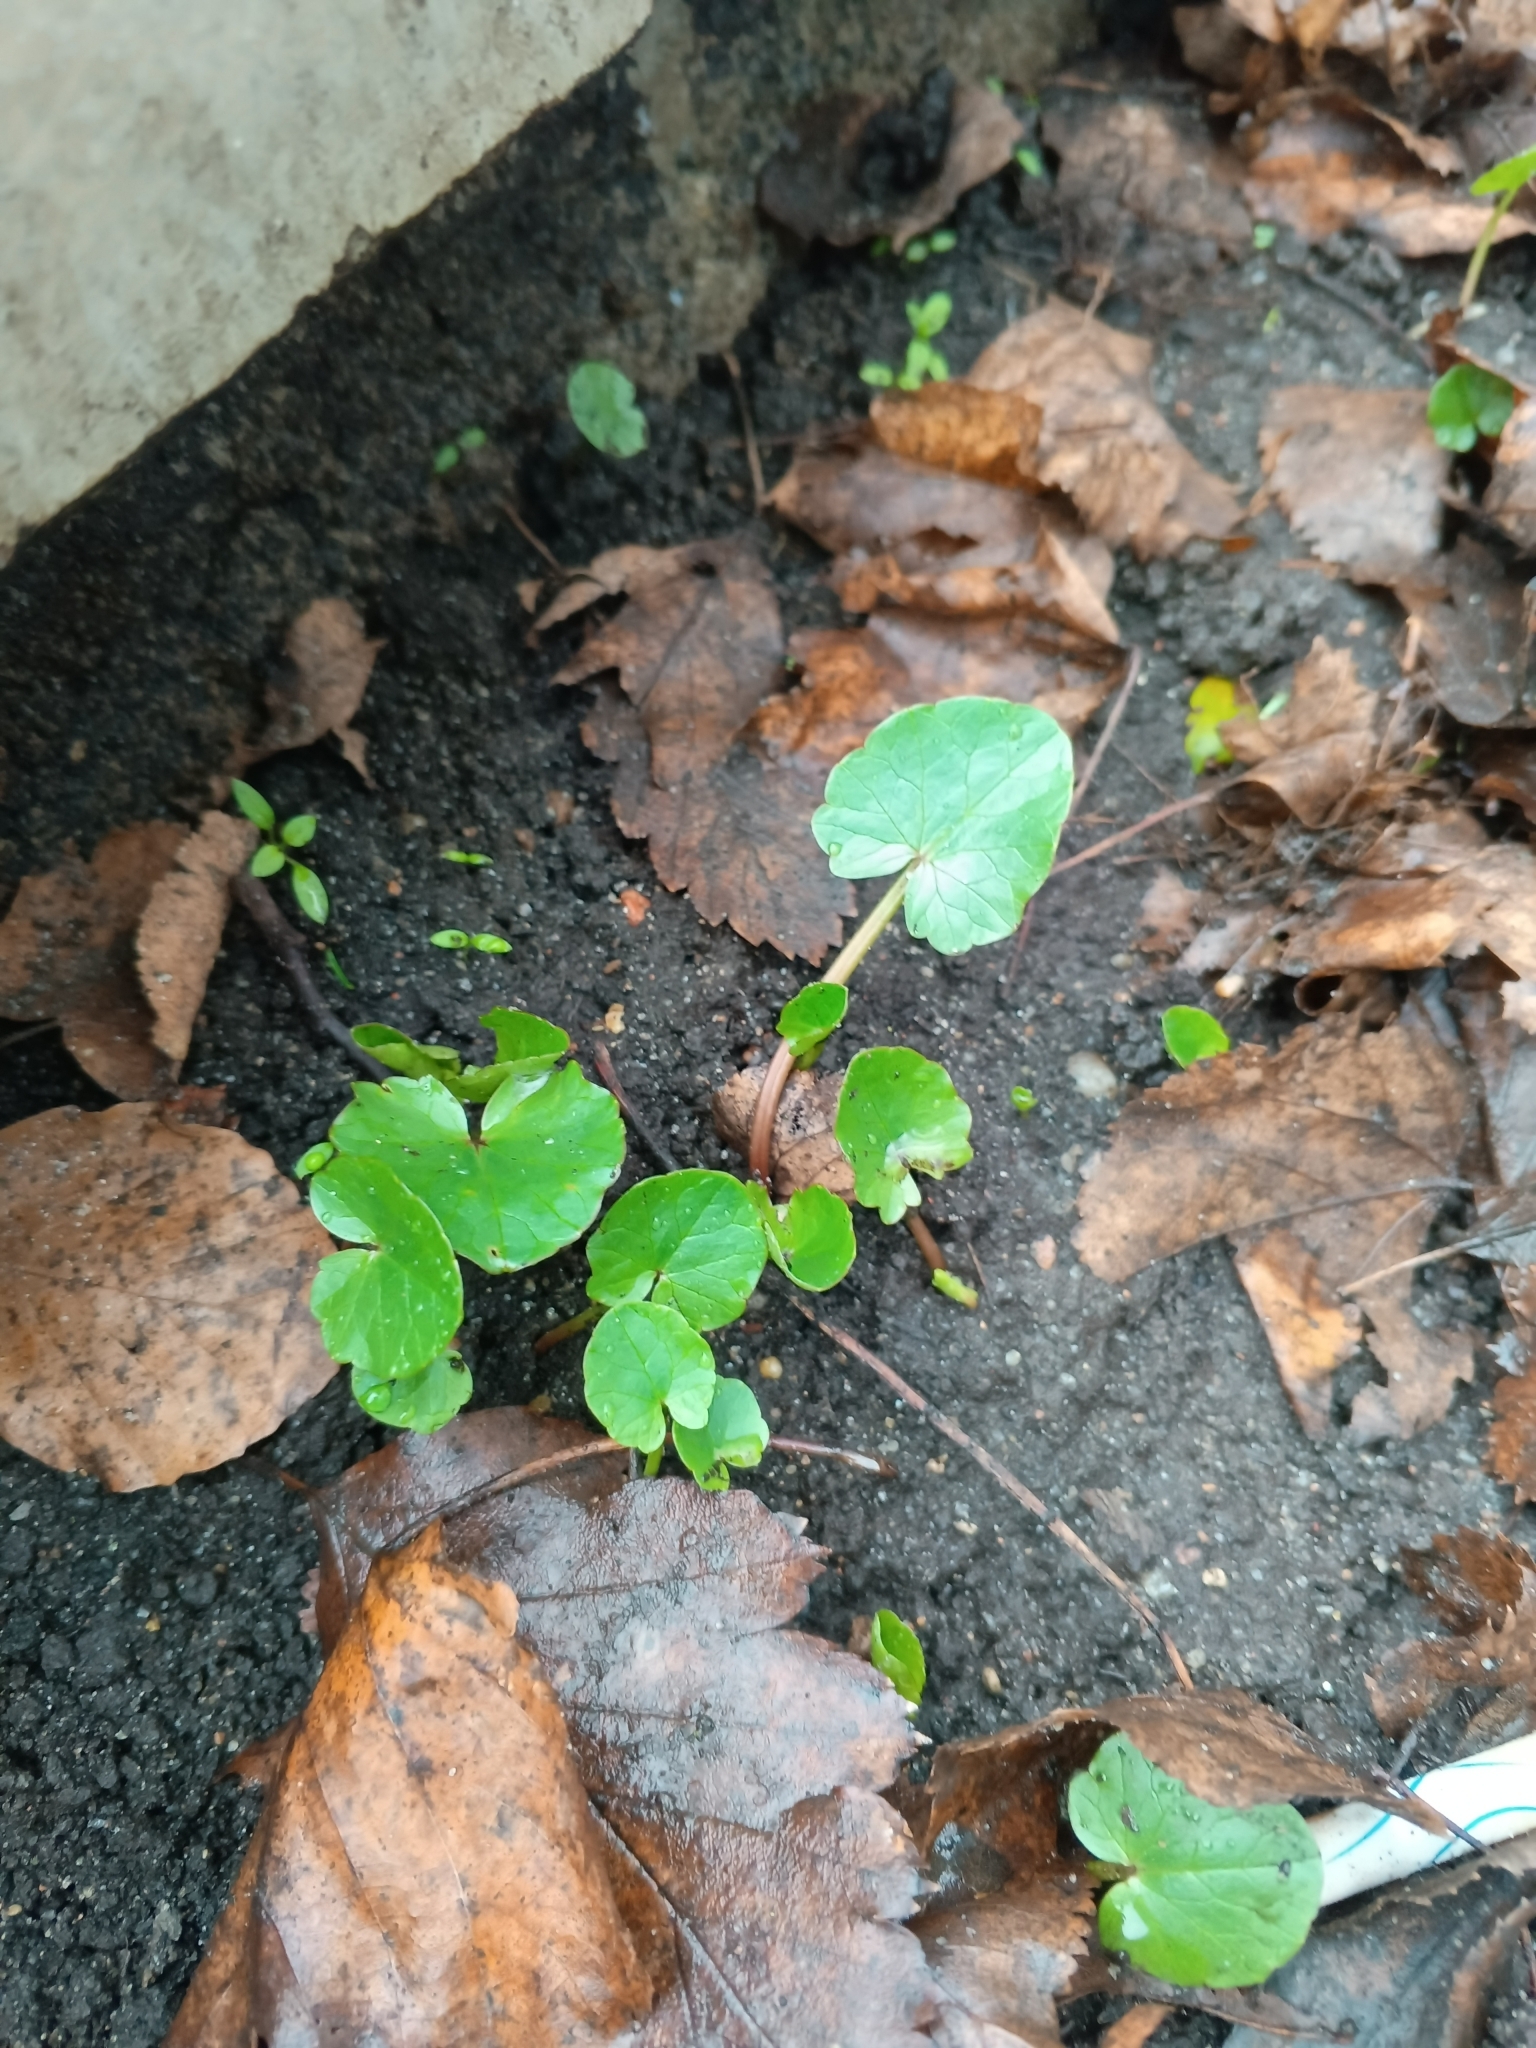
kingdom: Plantae
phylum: Tracheophyta
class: Magnoliopsida
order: Ranunculales
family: Ranunculaceae
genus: Ficaria
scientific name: Ficaria verna
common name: Lesser celandine
